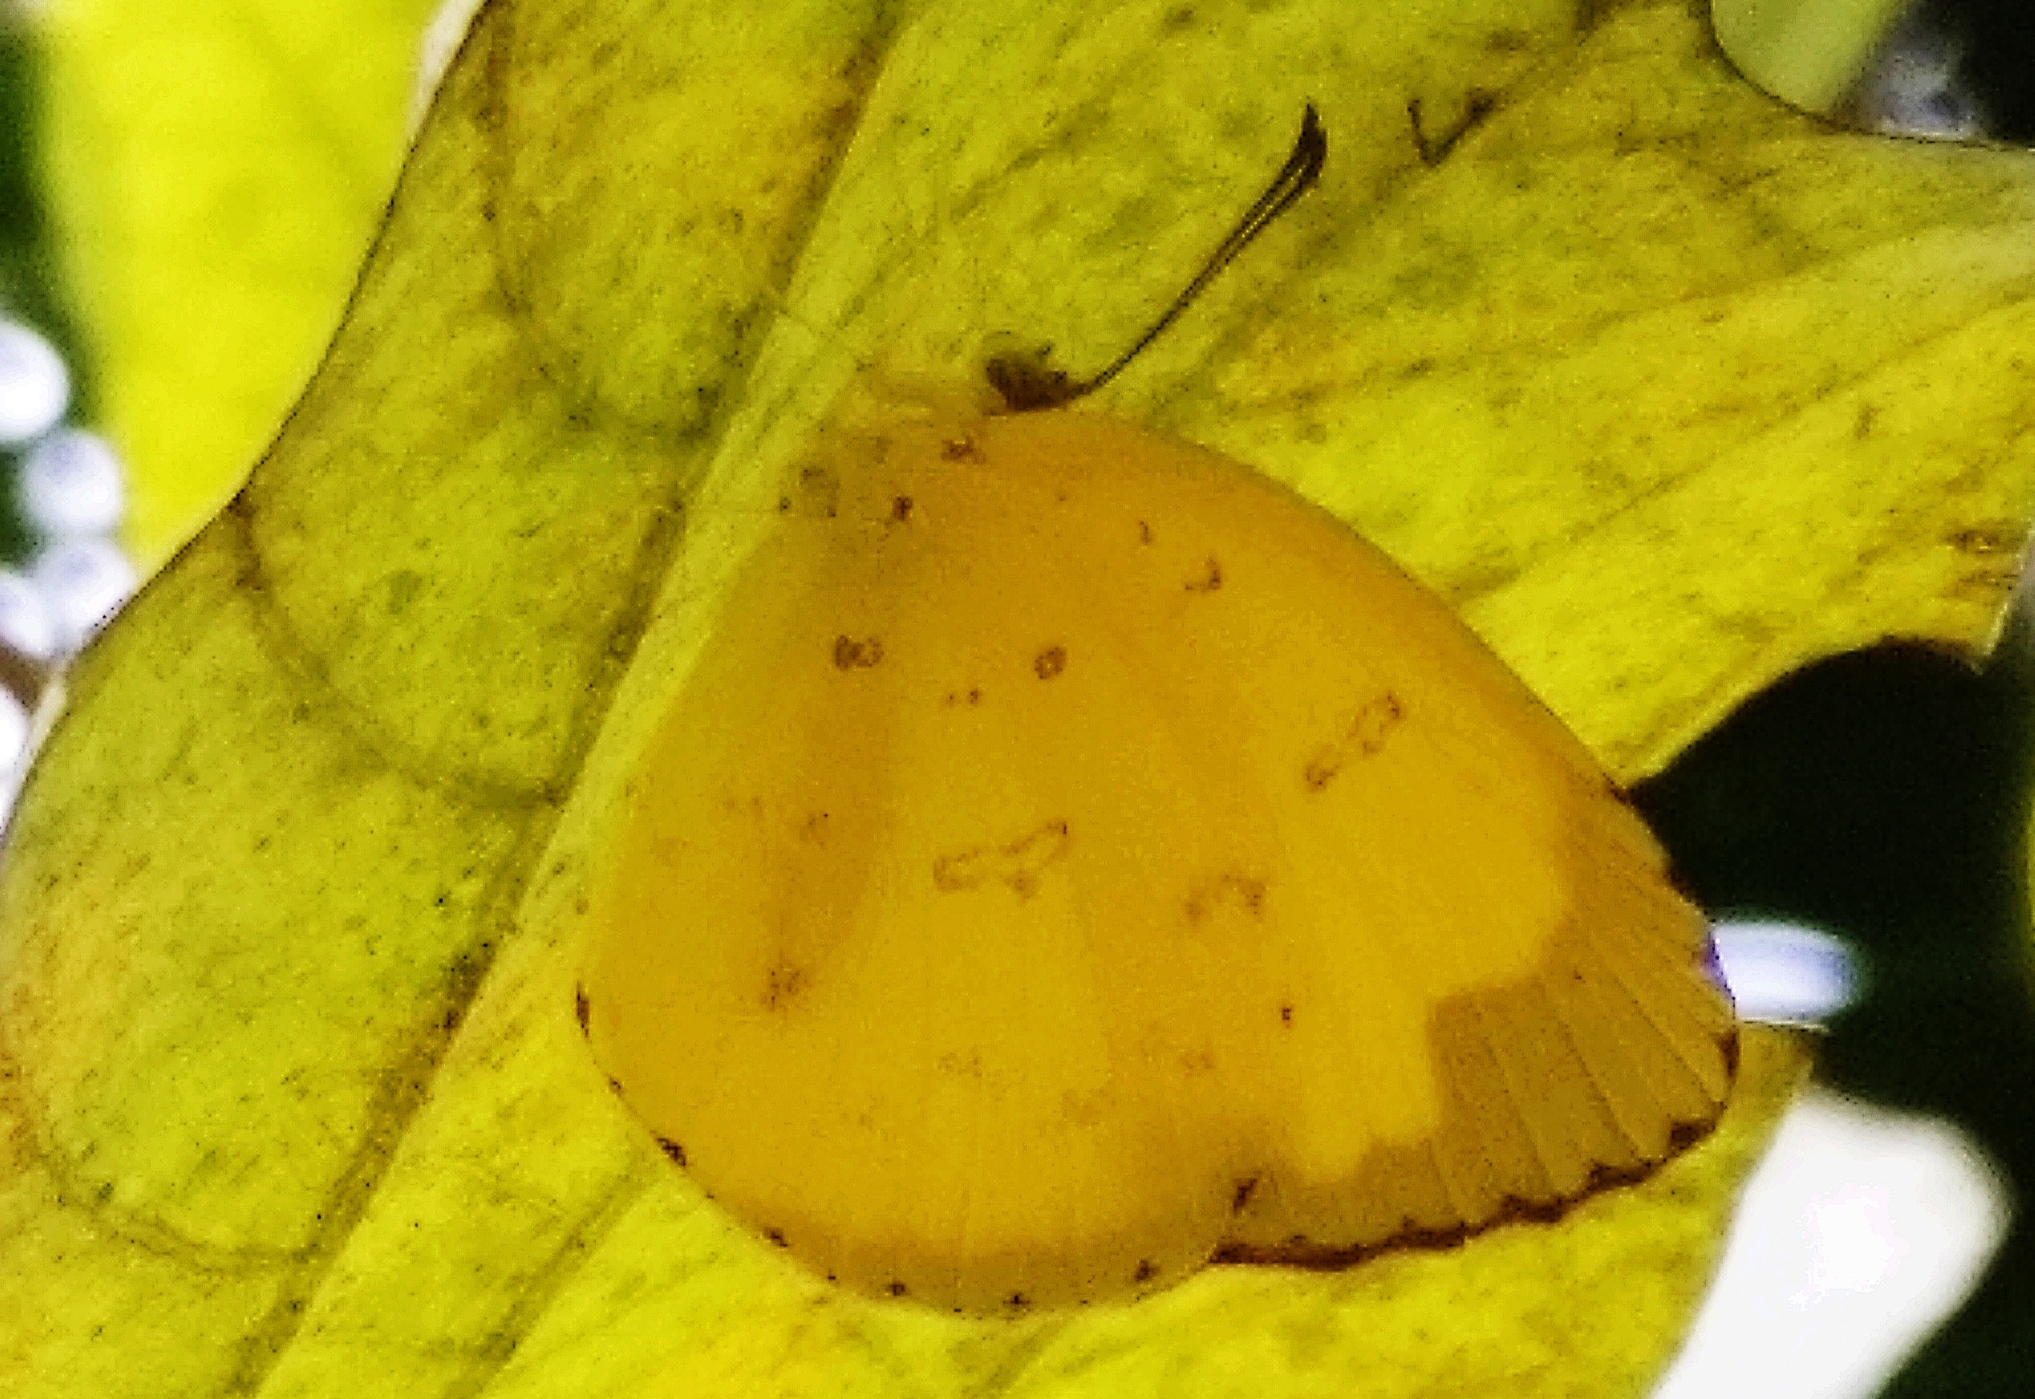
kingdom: Animalia
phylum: Arthropoda
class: Insecta
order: Lepidoptera
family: Pieridae
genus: Eurema
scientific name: Eurema hecabe
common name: Pale grass yellow
